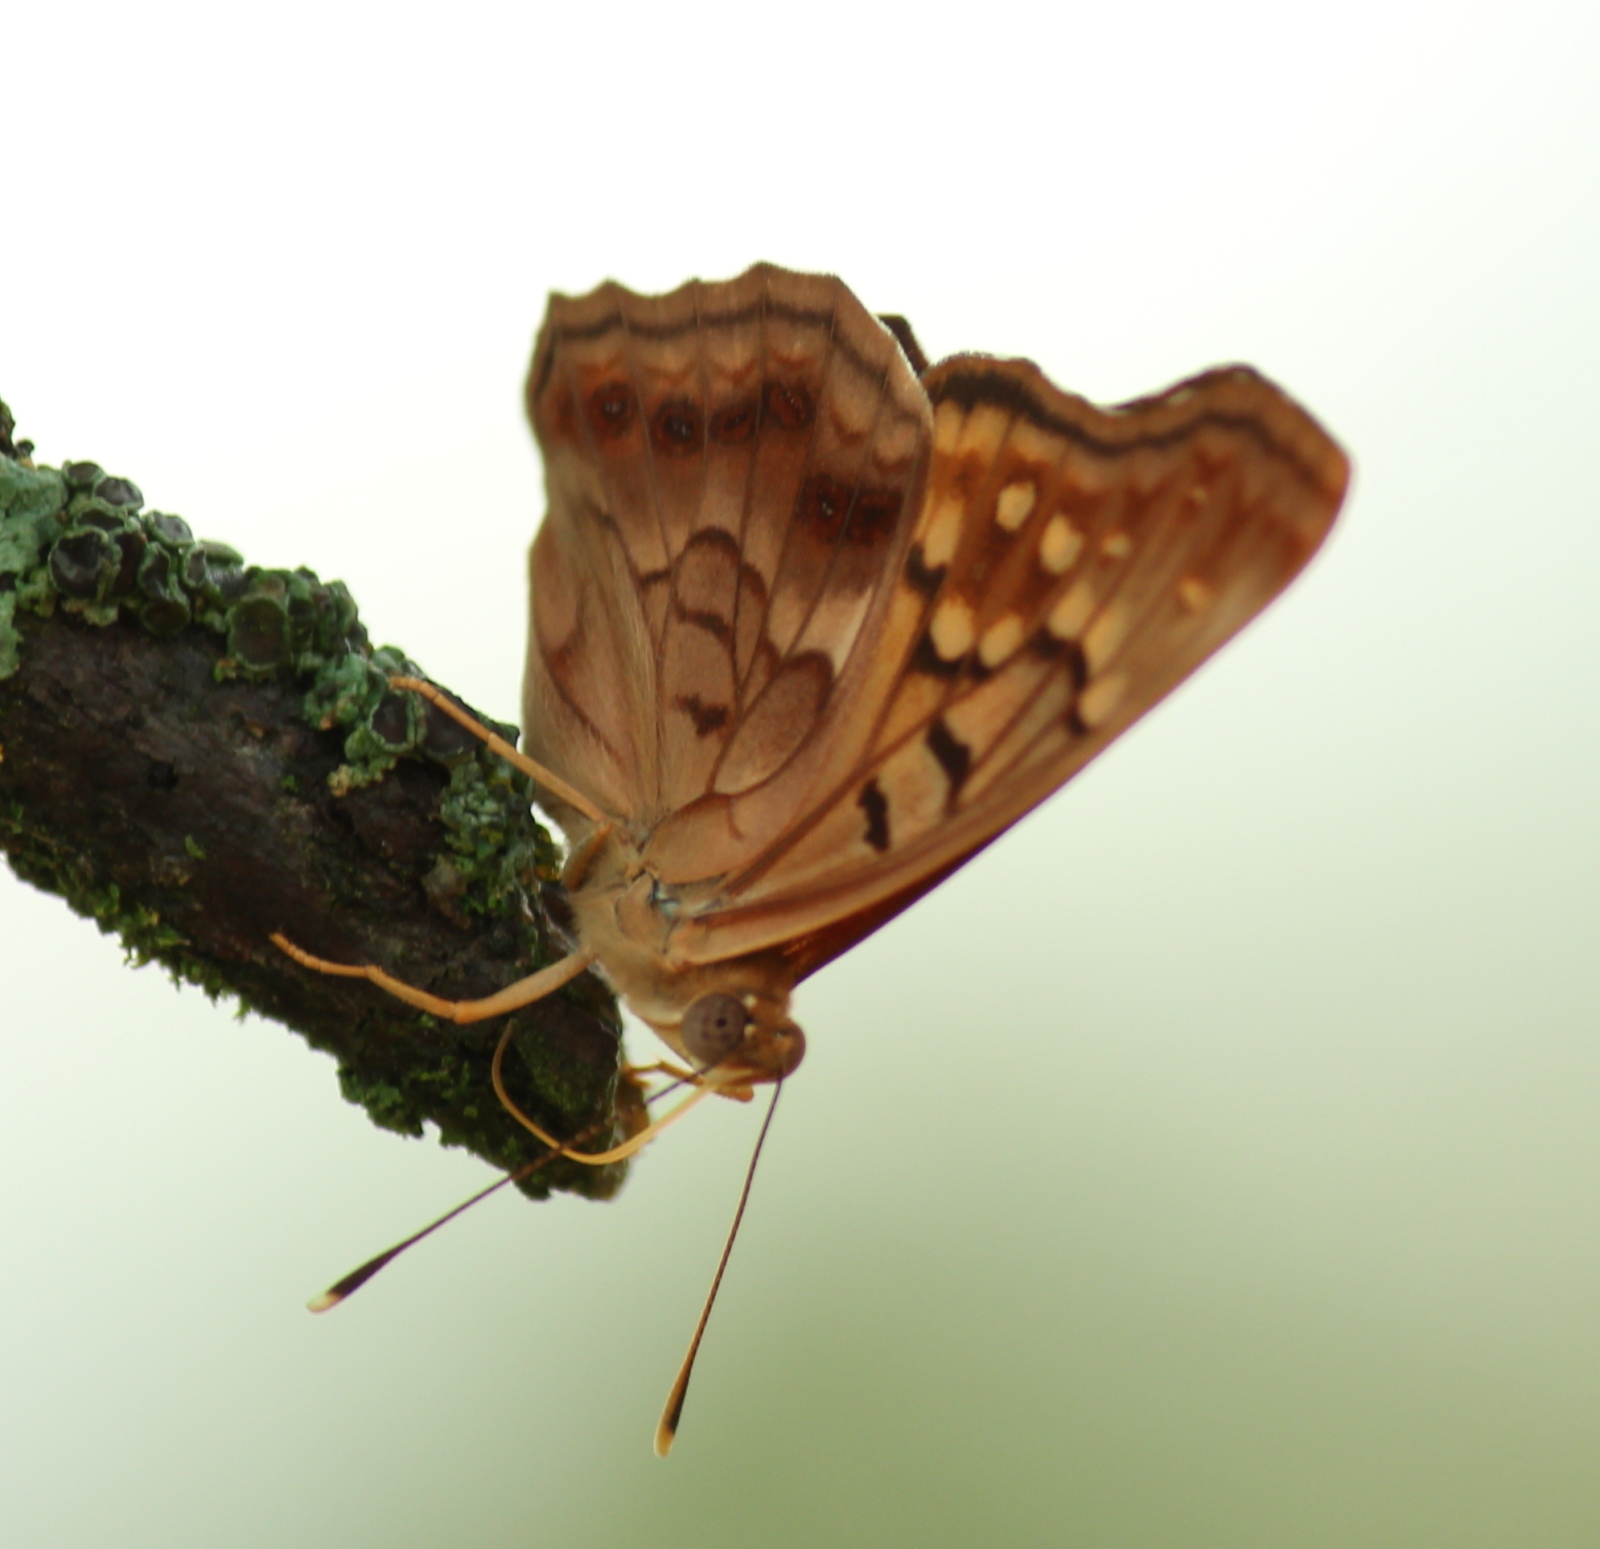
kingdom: Animalia
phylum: Arthropoda
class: Insecta
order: Lepidoptera
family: Nymphalidae
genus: Asterocampa
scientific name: Asterocampa clyton
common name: Tawny emperor
